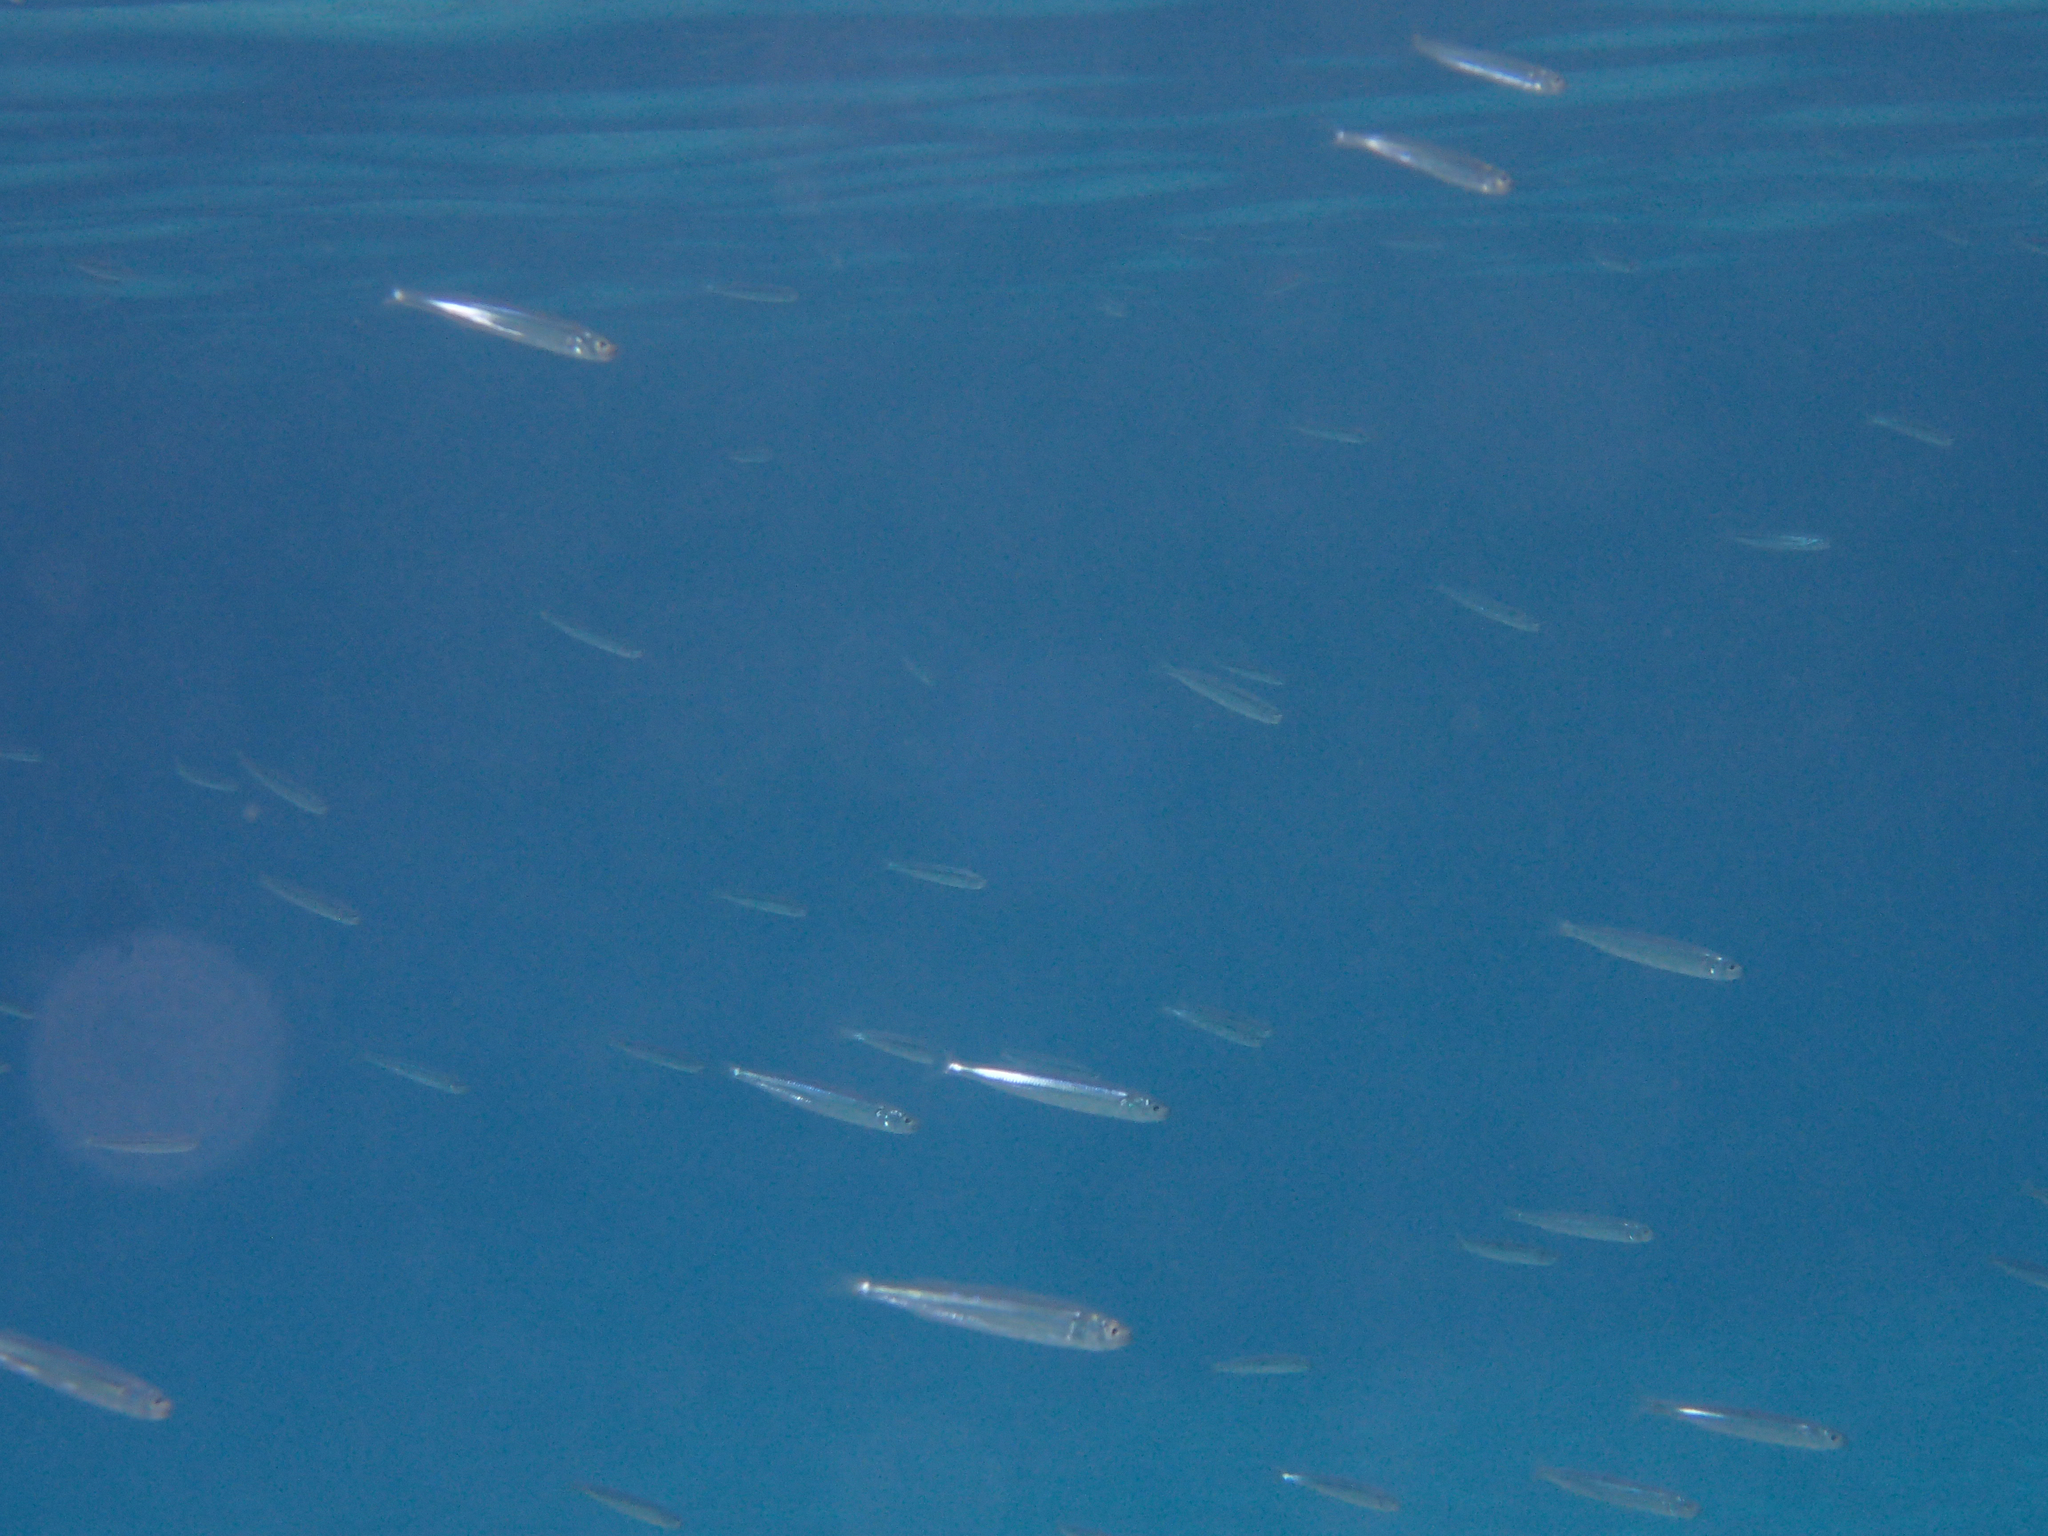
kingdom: Animalia
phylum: Chordata
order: Atheriniformes
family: Atherinidae
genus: Atherina
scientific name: Atherina hepsetus
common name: Mediterranean sand smelt
